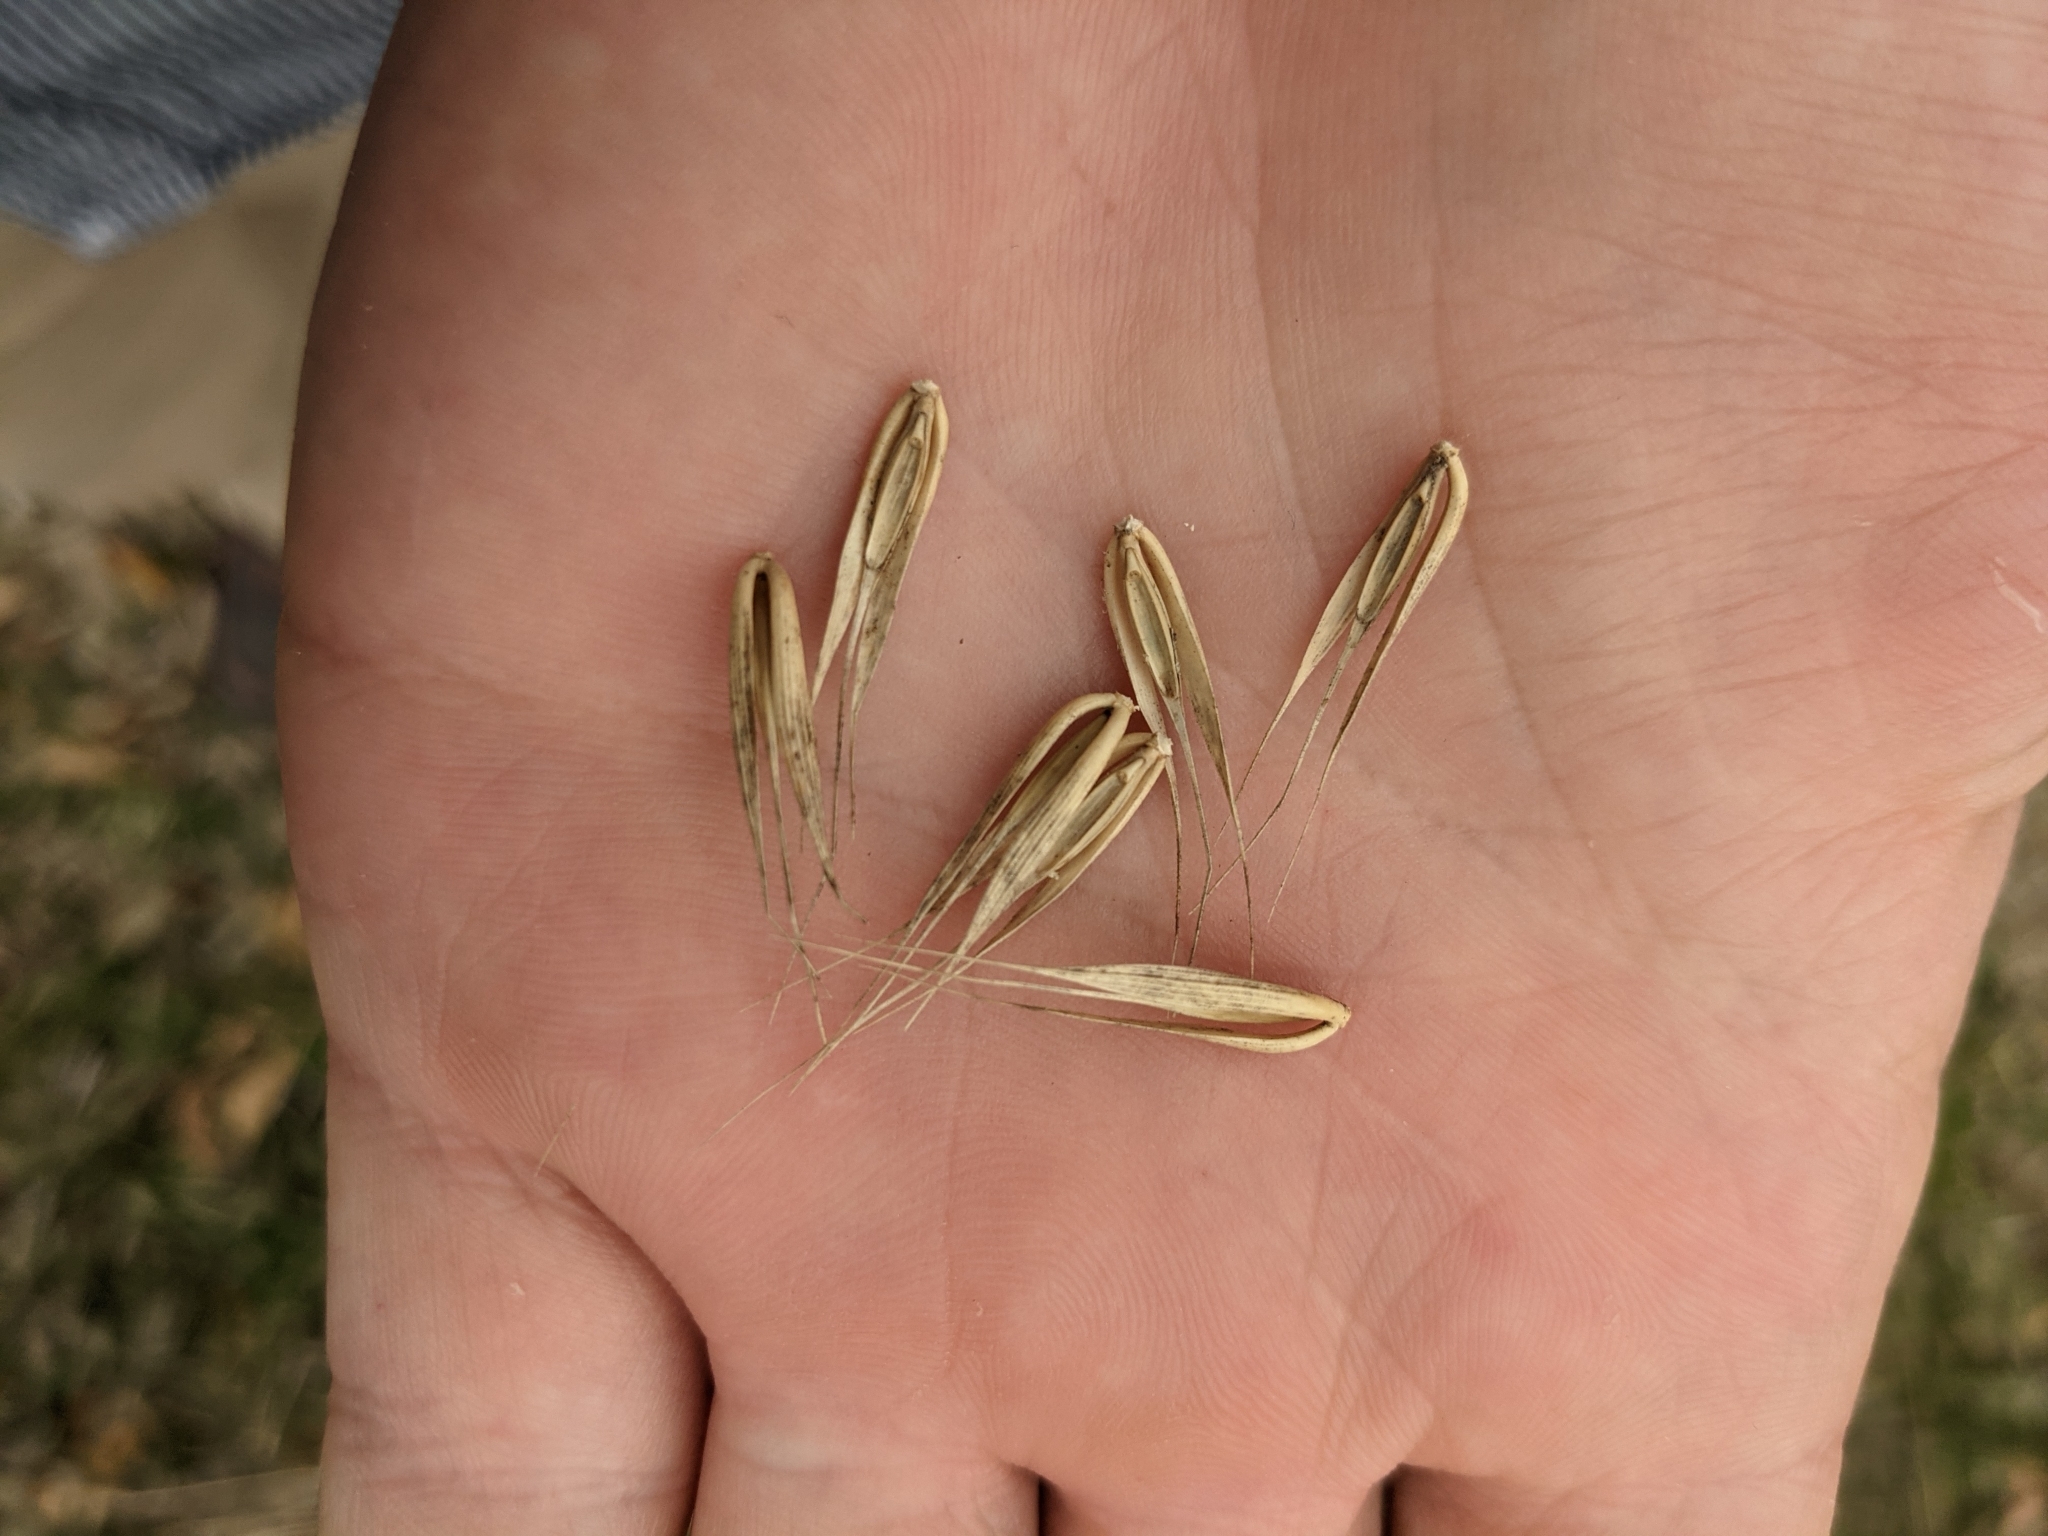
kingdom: Plantae
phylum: Tracheophyta
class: Liliopsida
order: Poales
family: Poaceae
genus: Elymus
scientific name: Elymus virginicus
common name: Common eastern wildrye
